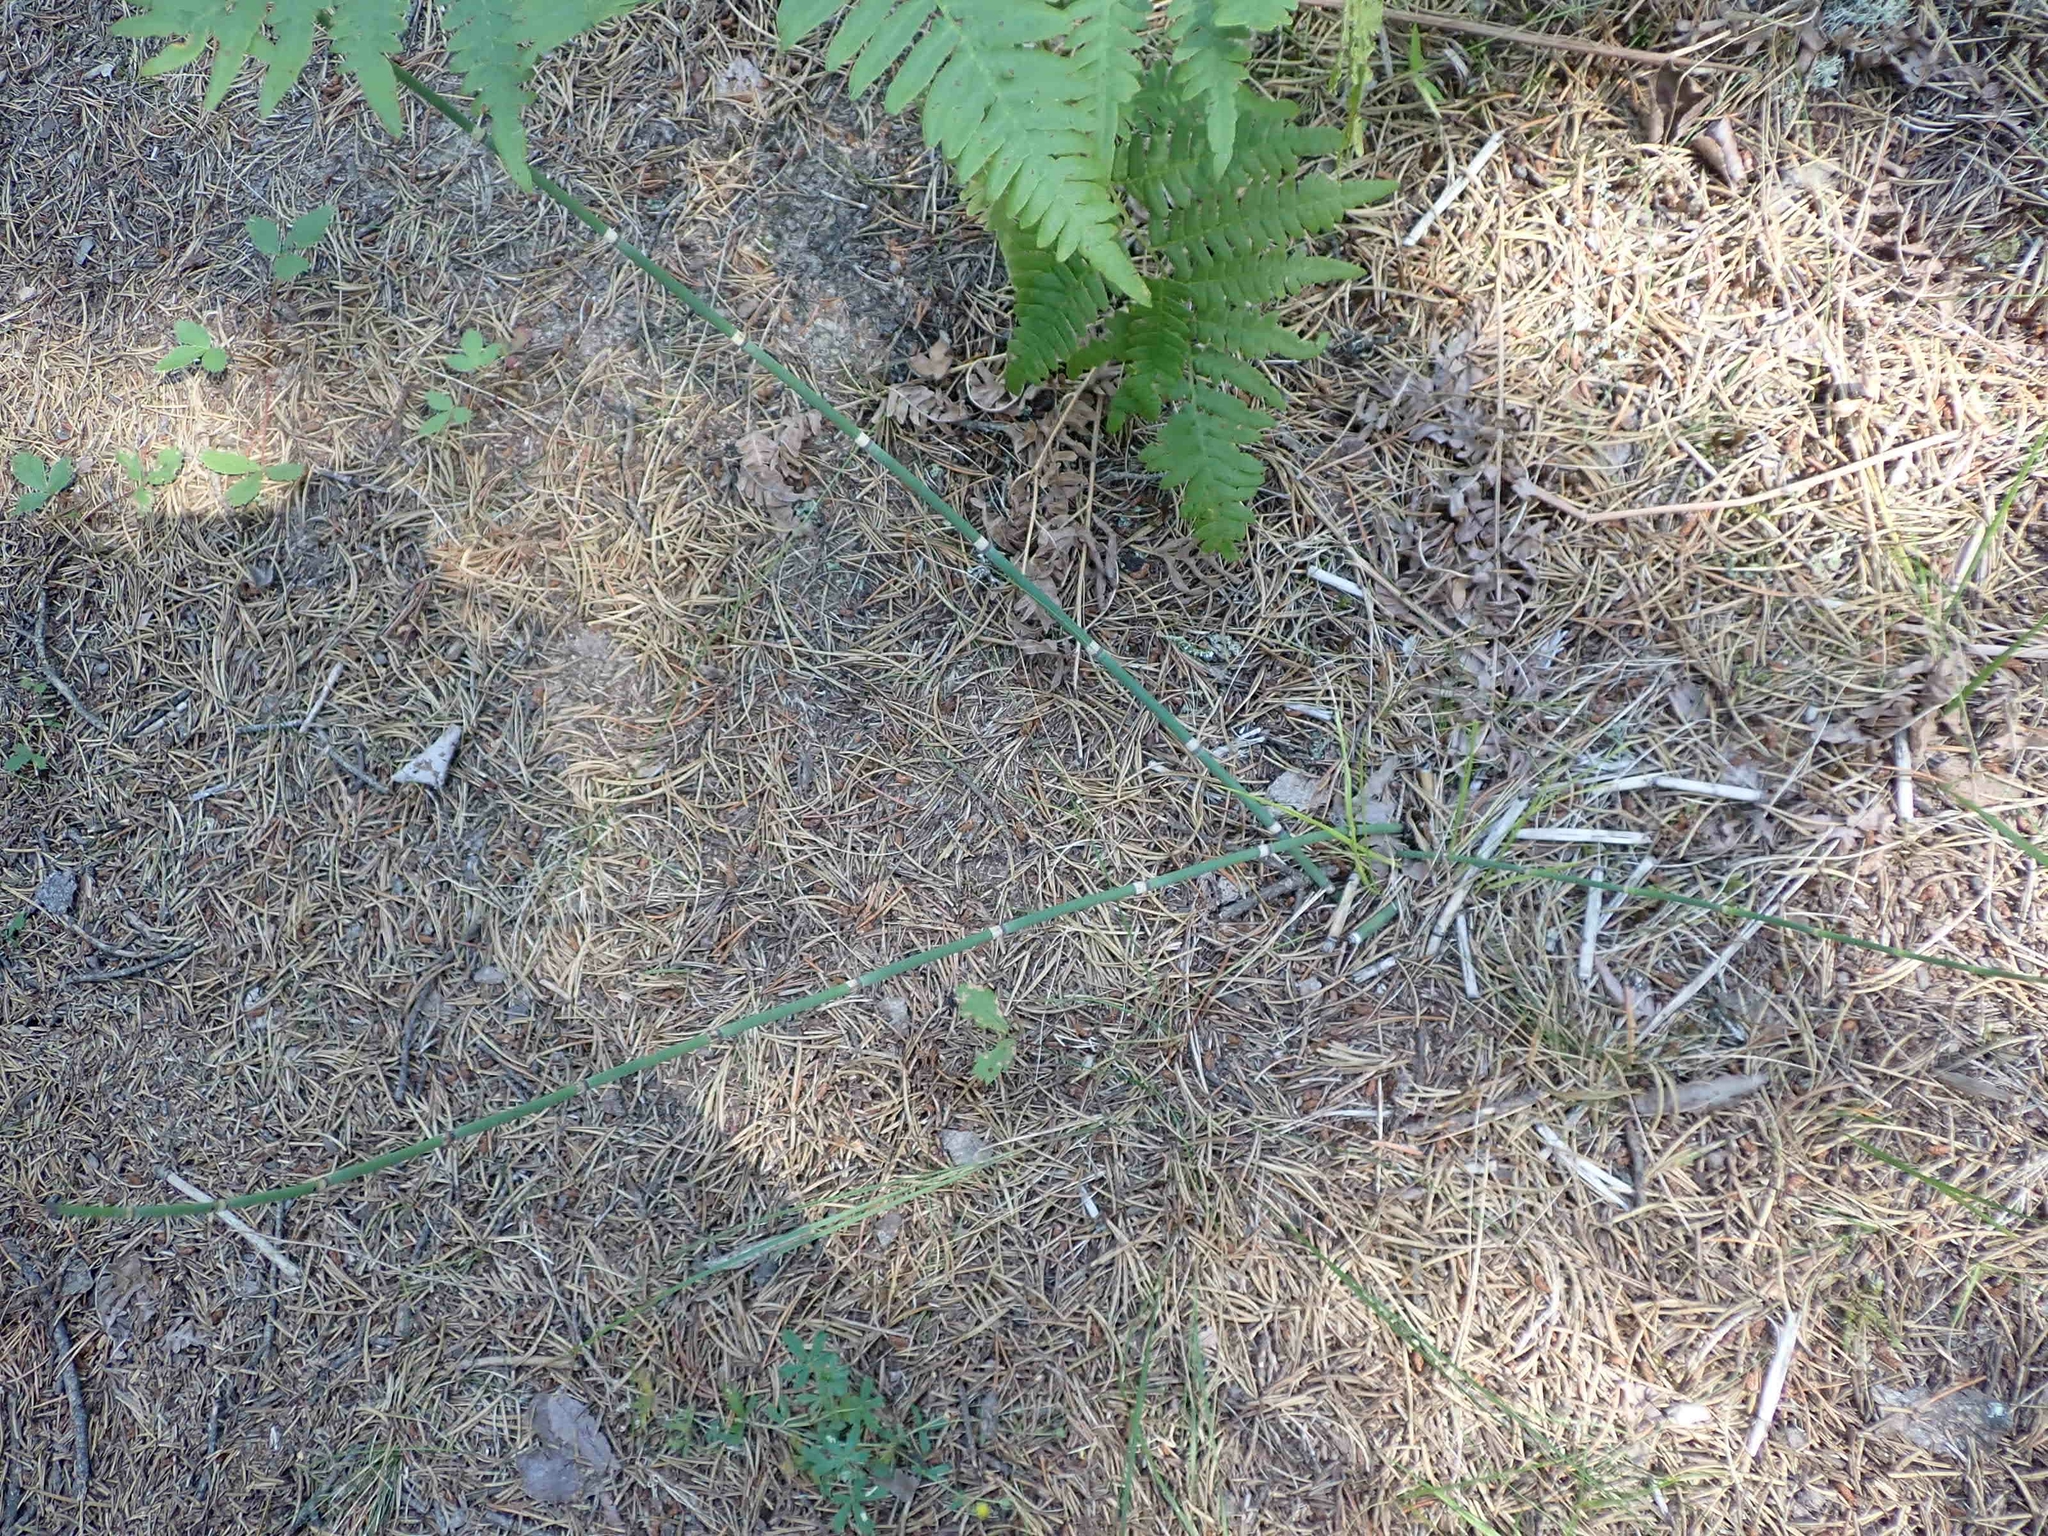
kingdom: Plantae
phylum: Tracheophyta
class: Polypodiopsida
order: Equisetales
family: Equisetaceae
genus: Equisetum
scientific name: Equisetum praealtum
